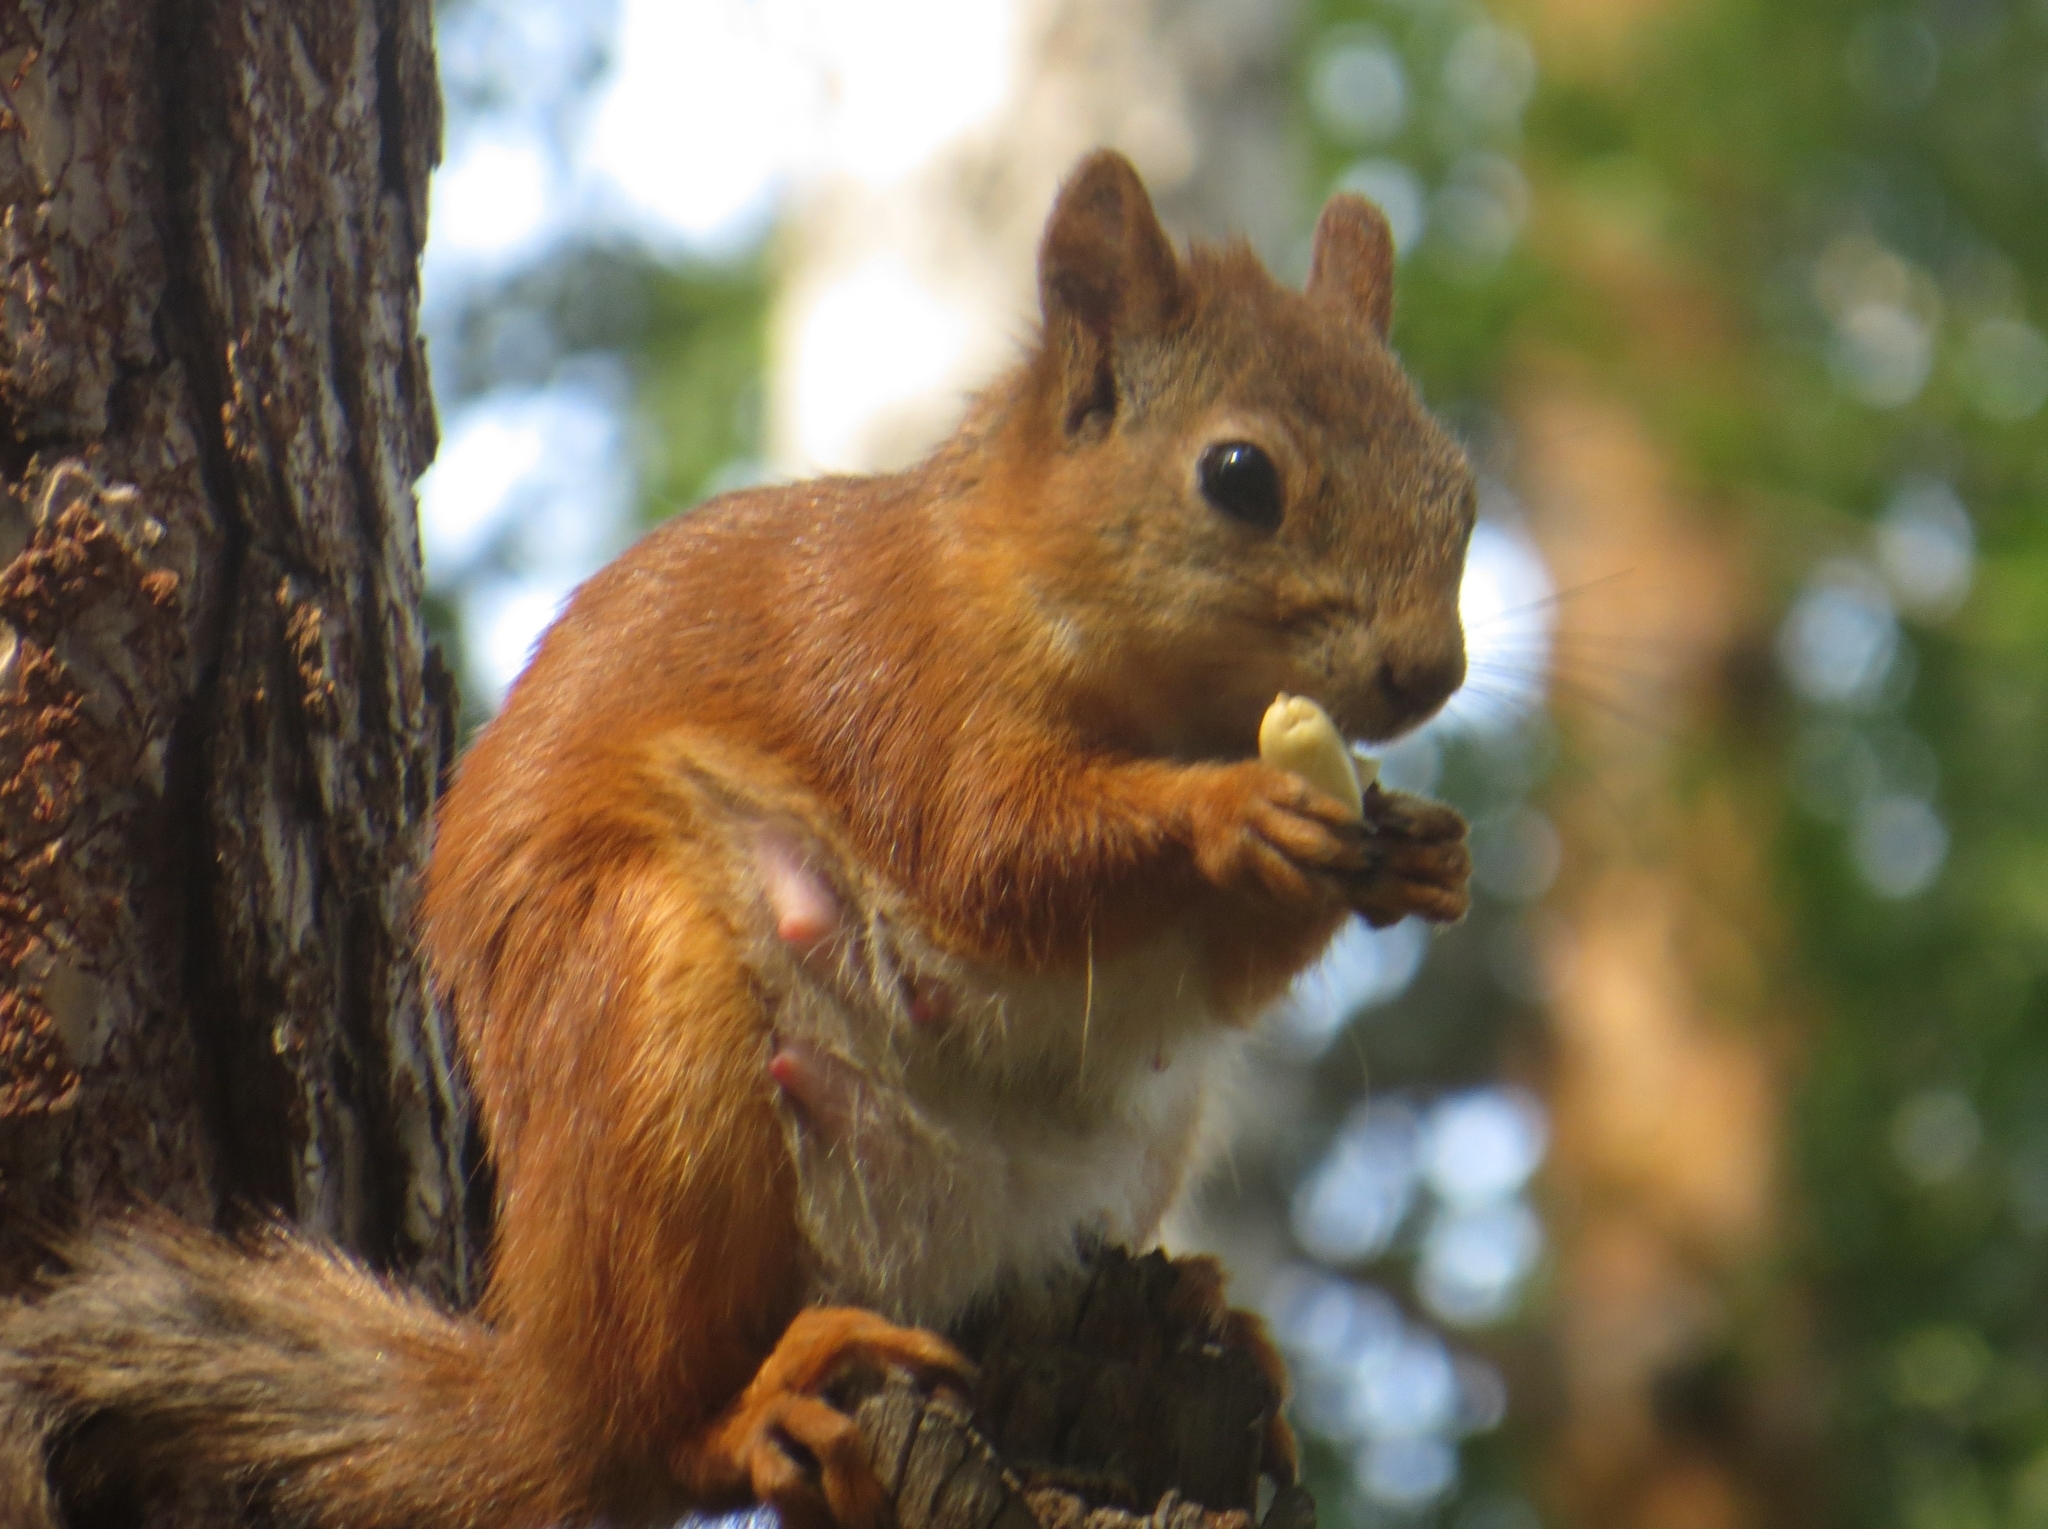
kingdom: Animalia
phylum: Chordata
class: Mammalia
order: Rodentia
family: Sciuridae
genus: Sciurus
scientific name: Sciurus vulgaris
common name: Eurasian red squirrel
